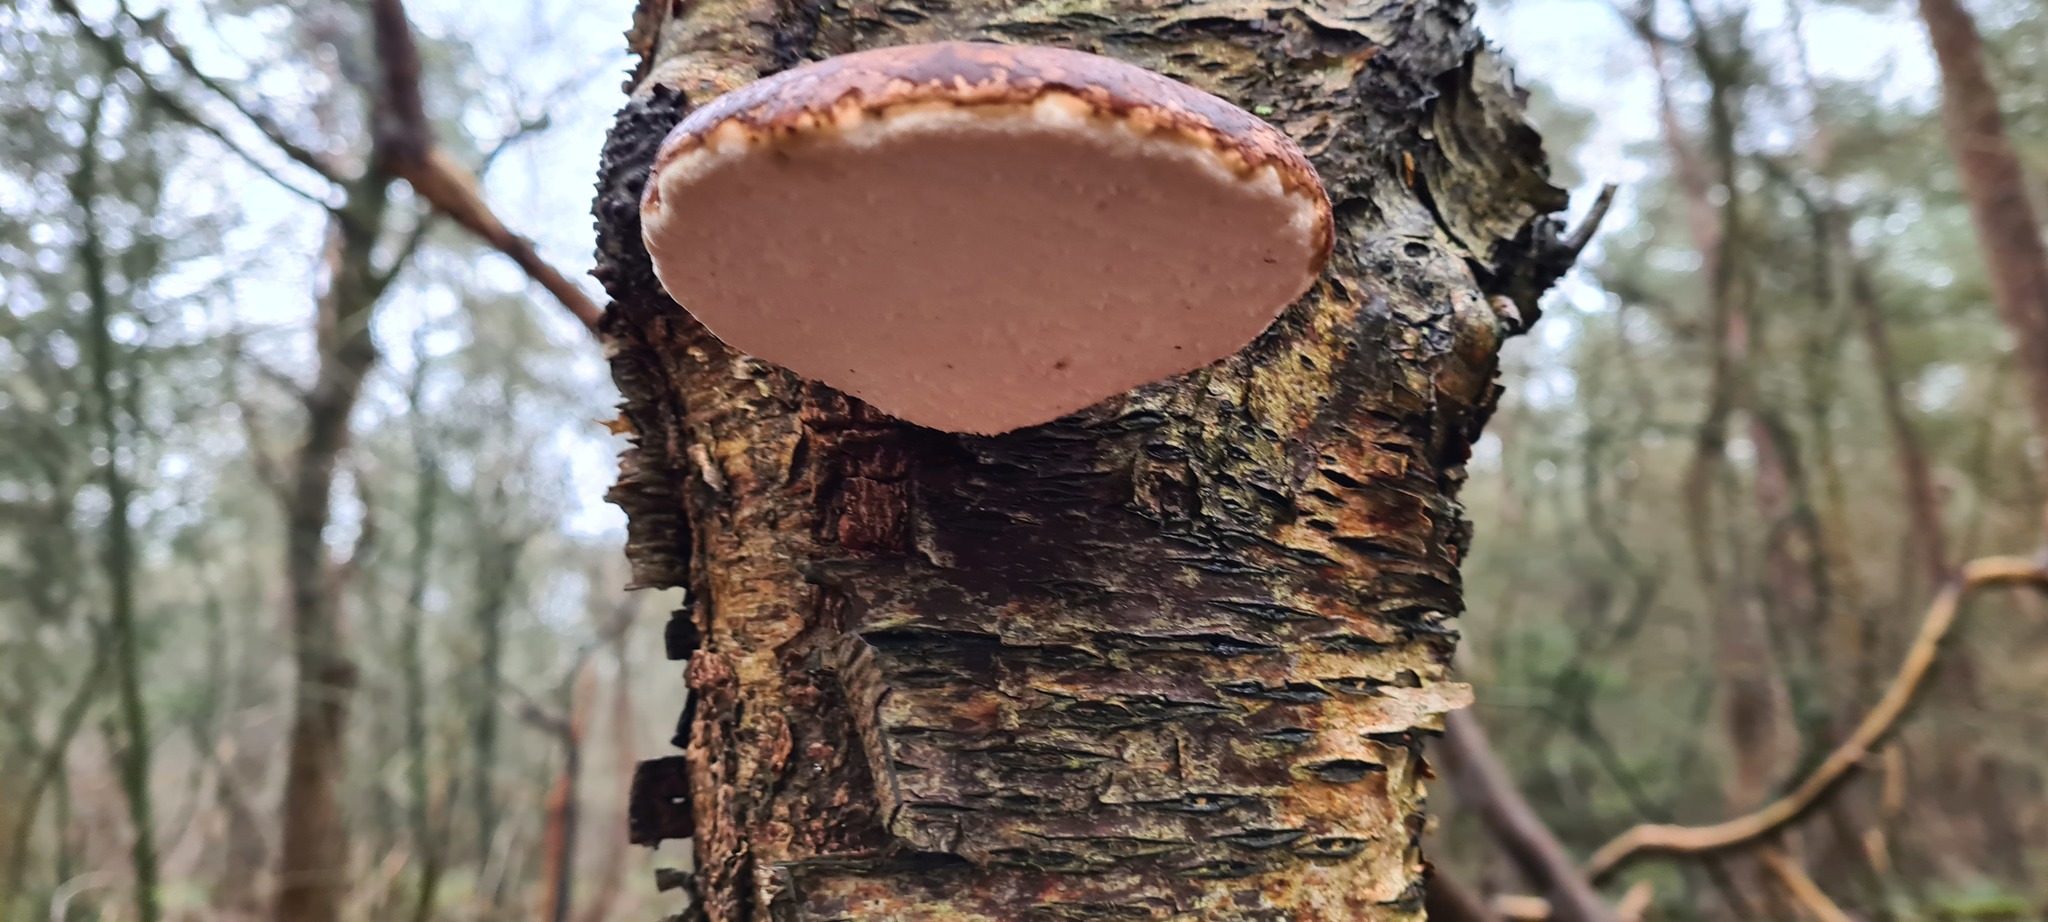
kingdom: Fungi
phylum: Basidiomycota
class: Agaricomycetes
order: Polyporales
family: Fomitopsidaceae
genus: Fomitopsis
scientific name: Fomitopsis betulina
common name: Birch polypore
